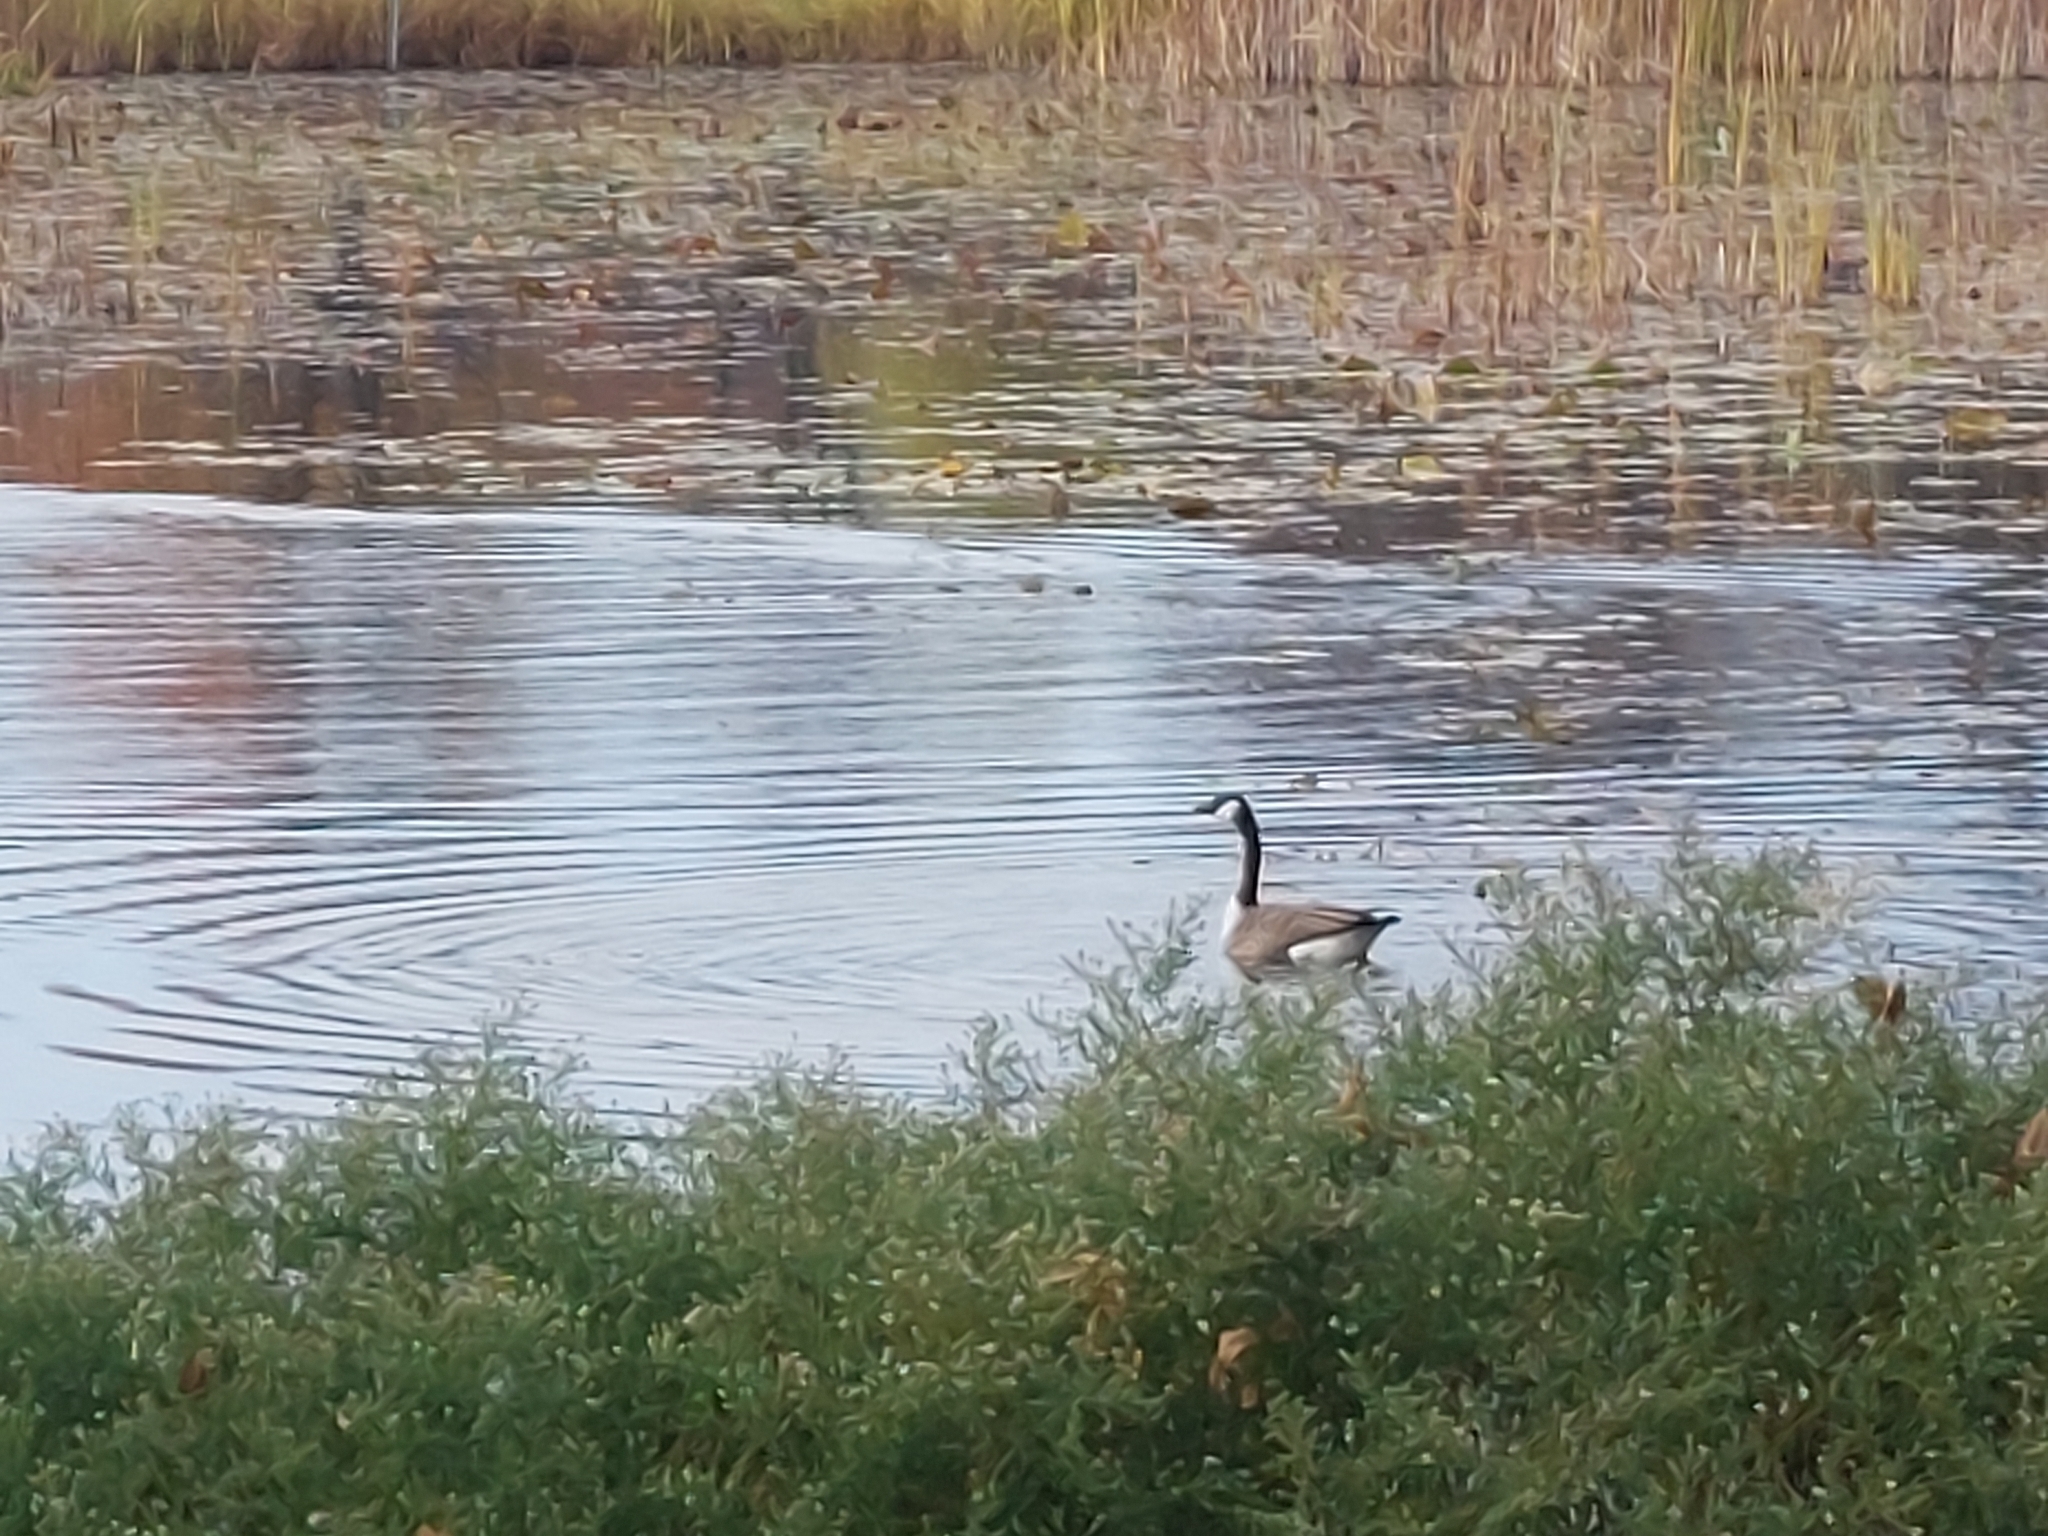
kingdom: Animalia
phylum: Chordata
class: Aves
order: Anseriformes
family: Anatidae
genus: Branta
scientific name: Branta canadensis
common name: Canada goose
